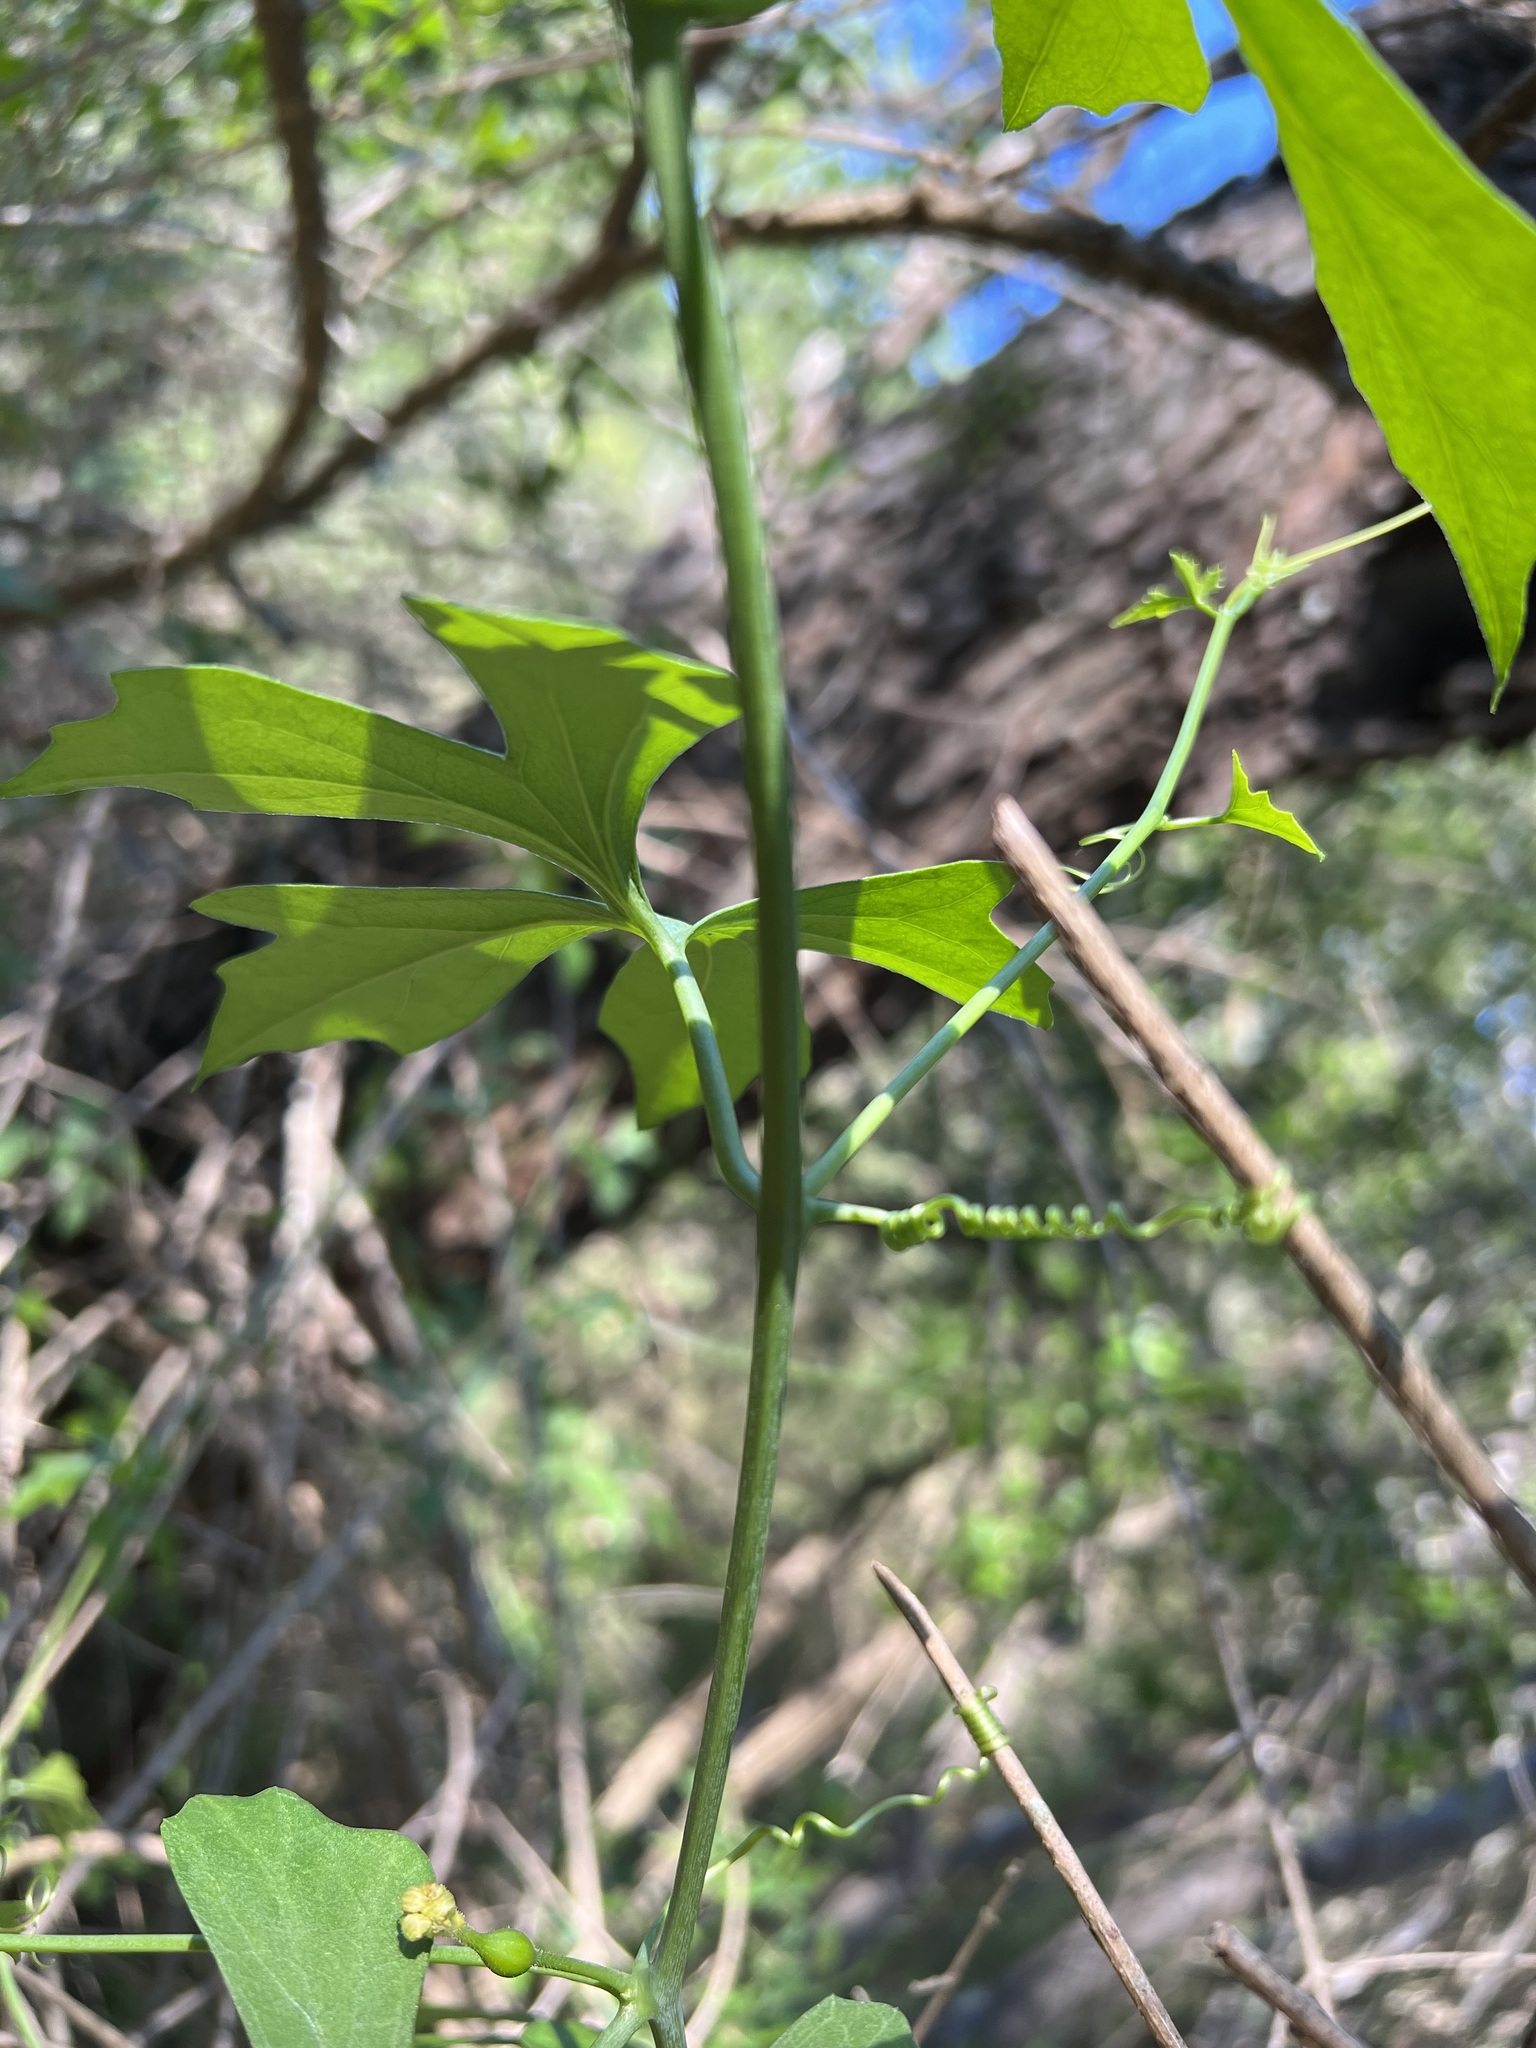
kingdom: Plantae
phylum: Tracheophyta
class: Magnoliopsida
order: Cucurbitales
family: Cucurbitaceae
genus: Ibervillea
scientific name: Ibervillea lindheimeri
